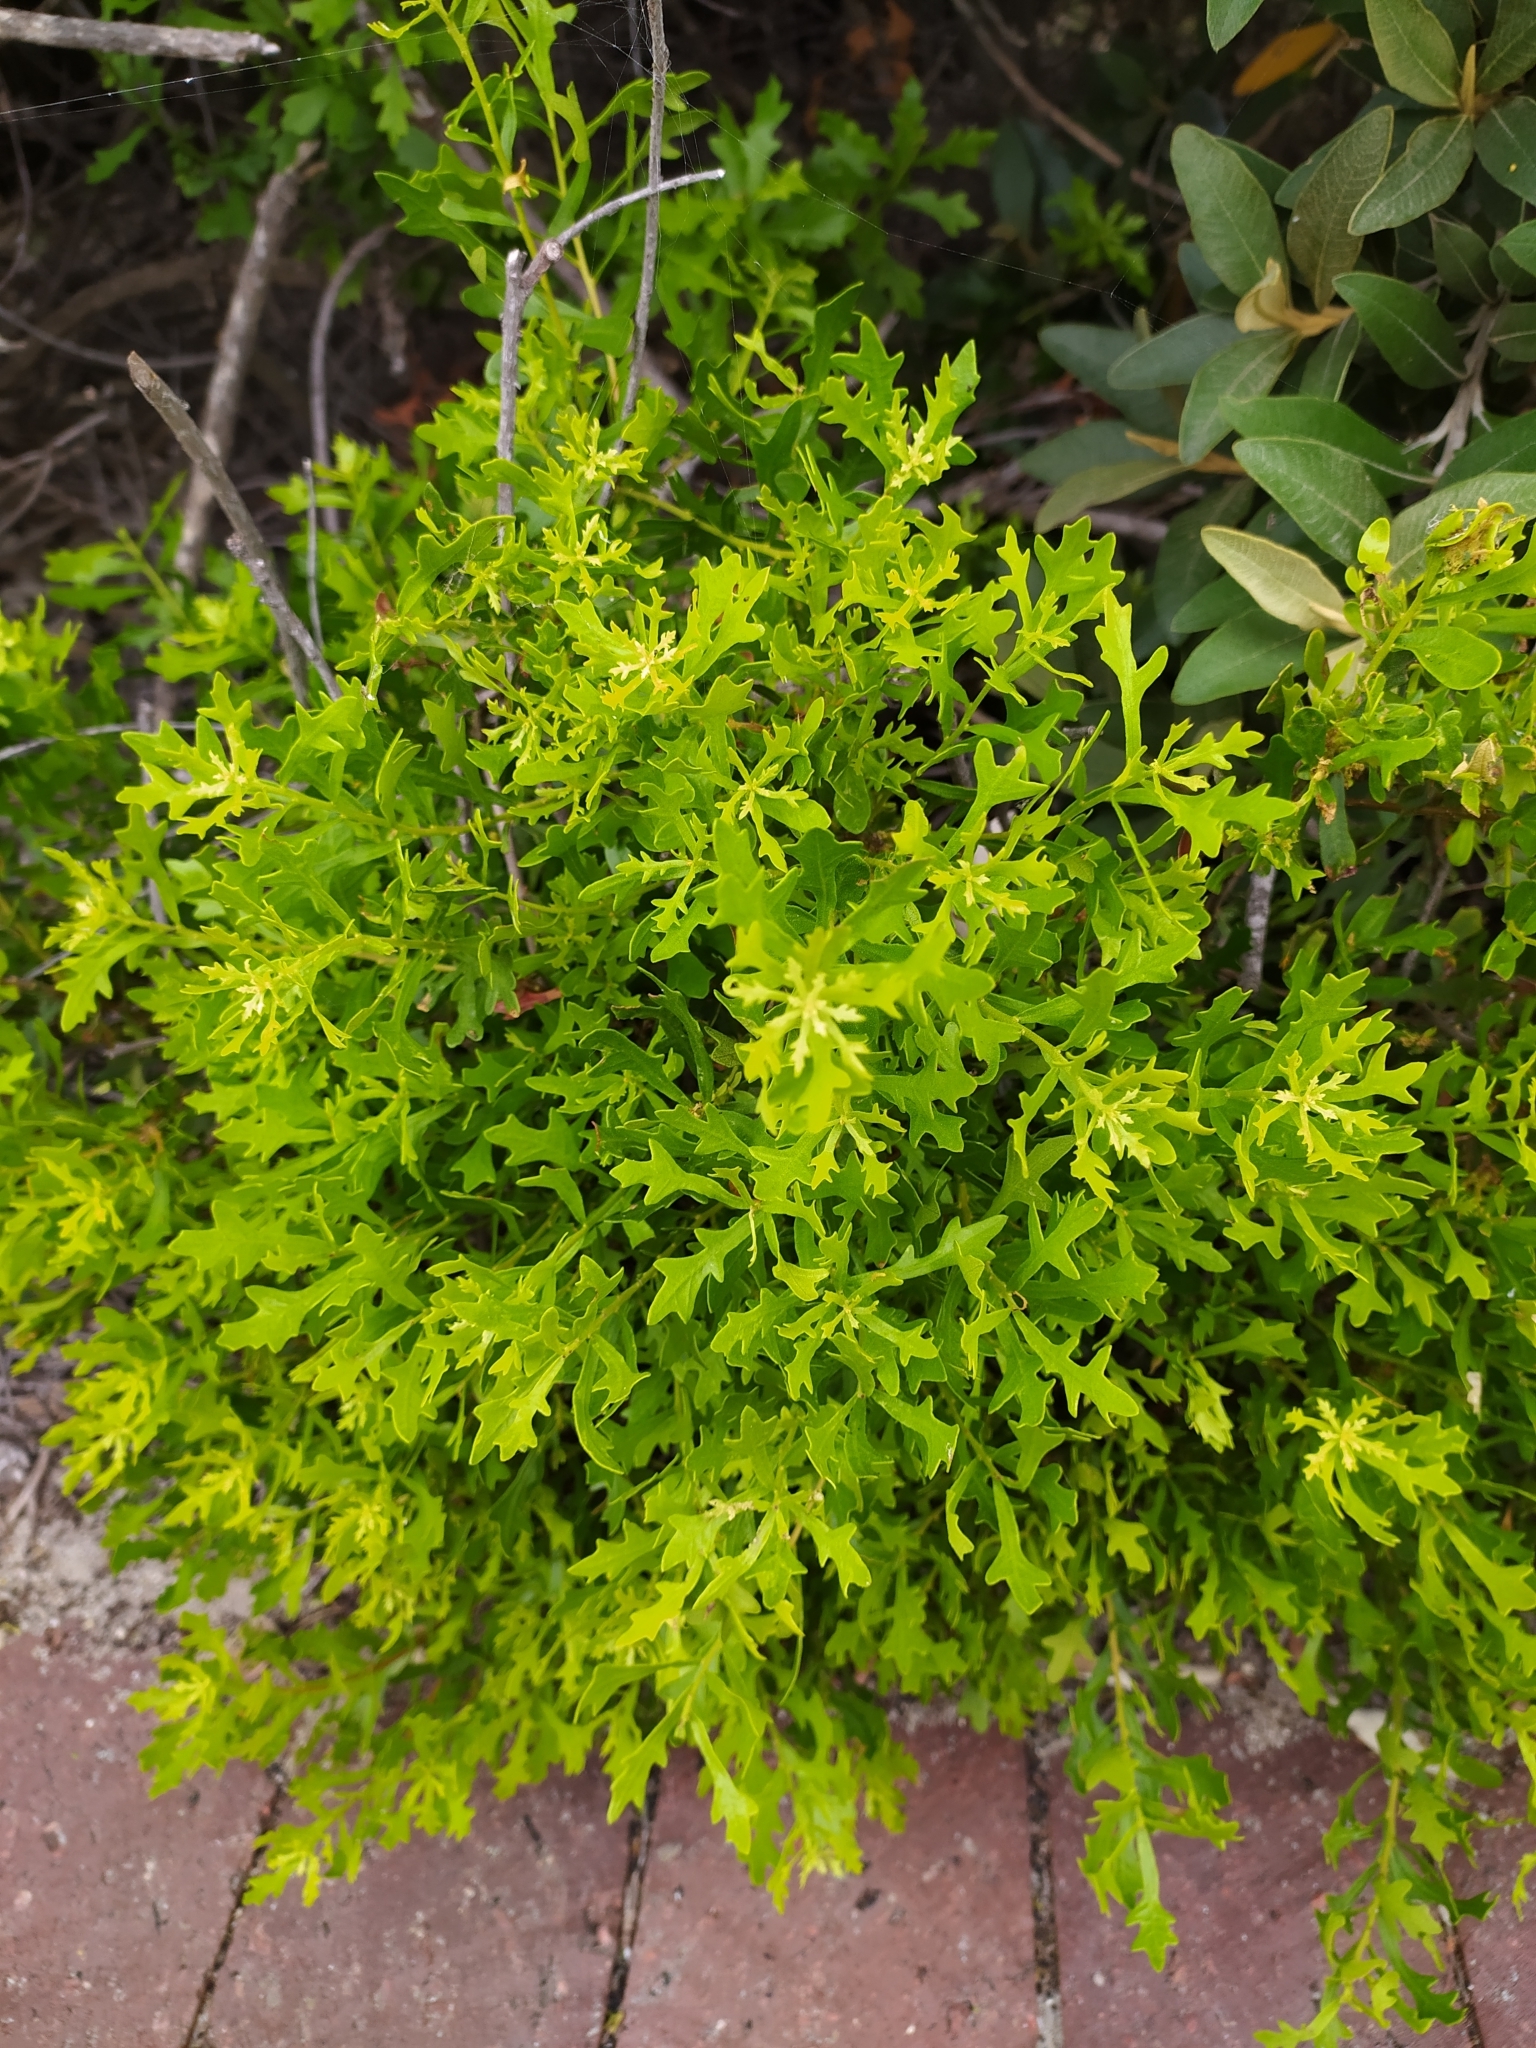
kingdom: Plantae
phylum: Tracheophyta
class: Magnoliopsida
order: Fagales
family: Myricaceae
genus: Morella
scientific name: Morella quercifolia
